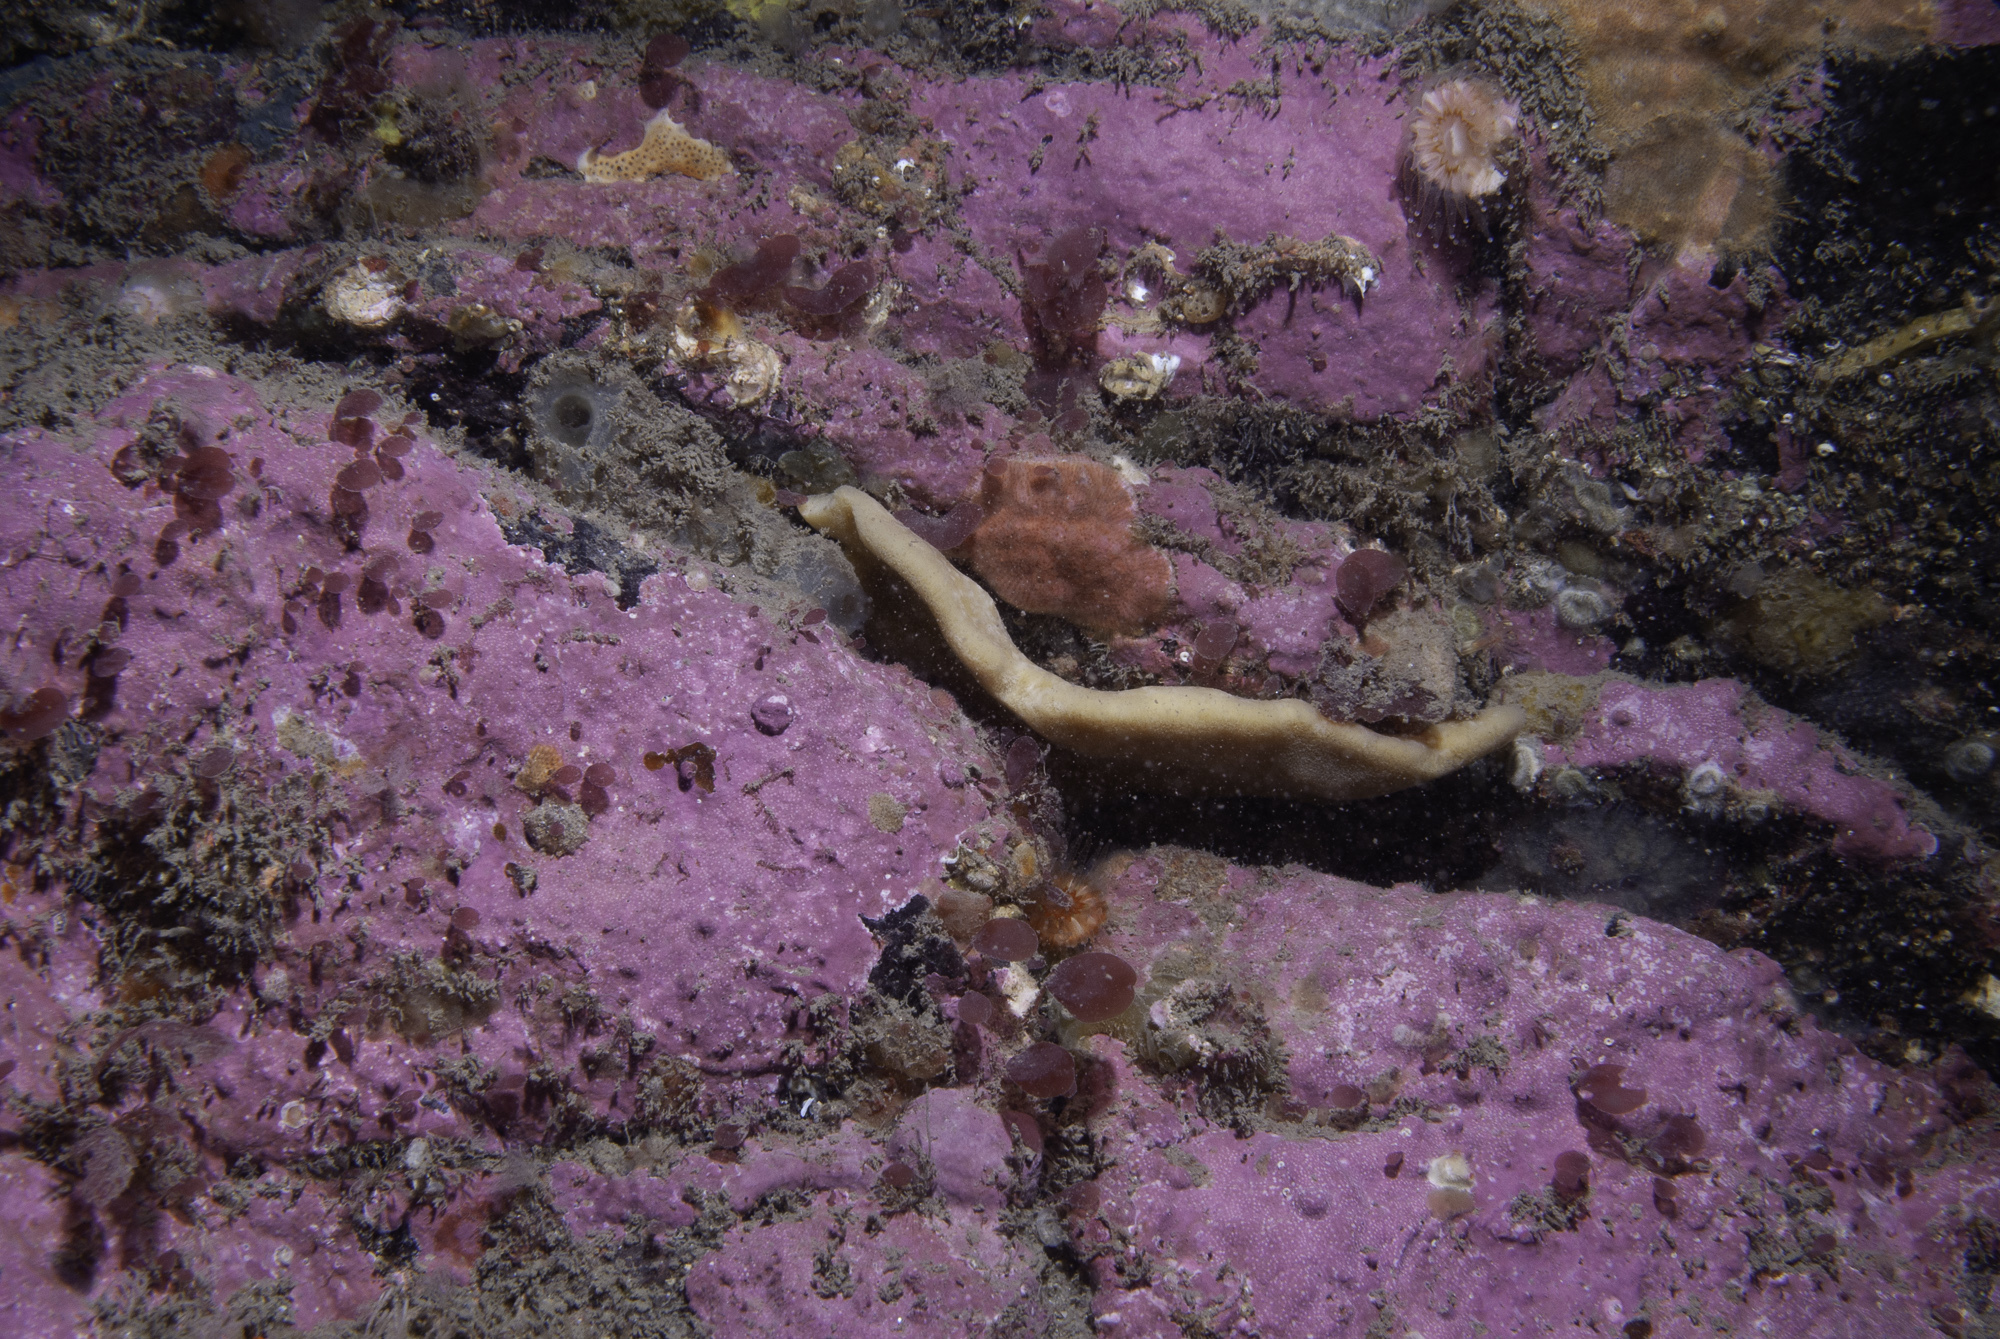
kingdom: Animalia
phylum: Porifera
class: Demospongiae
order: Axinellida
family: Axinellidae
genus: Axinella
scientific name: Axinella infundibuliformis
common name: North atlantic cup sponge
